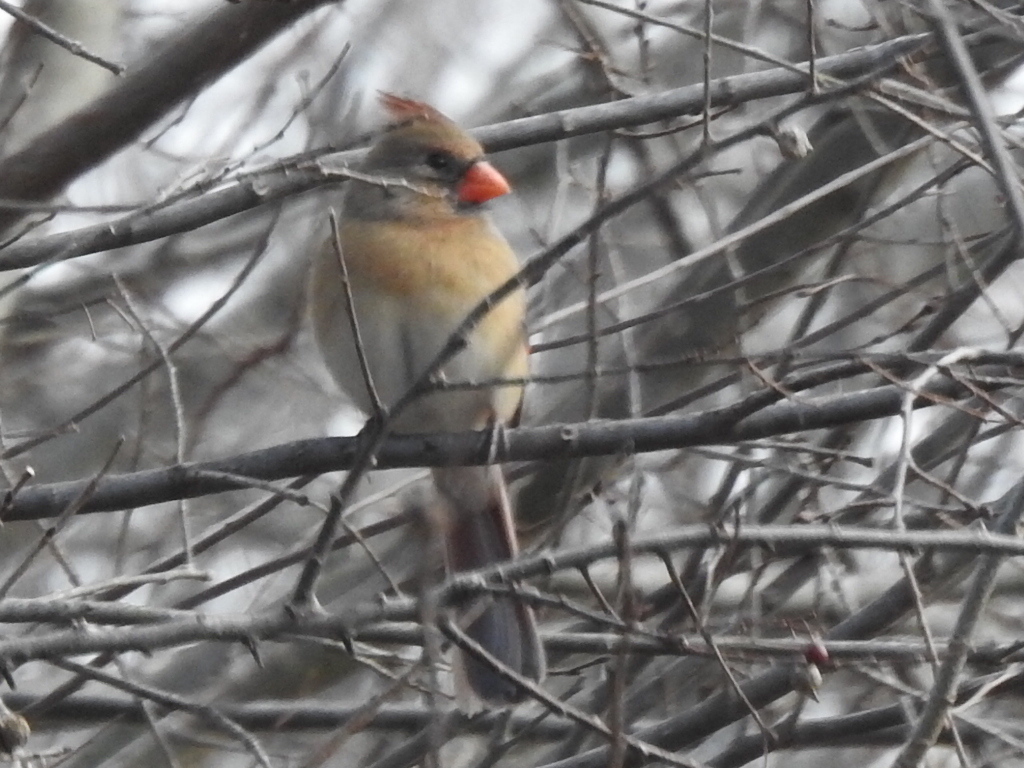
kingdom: Animalia
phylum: Chordata
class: Aves
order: Passeriformes
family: Cardinalidae
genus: Cardinalis
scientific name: Cardinalis cardinalis
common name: Northern cardinal
